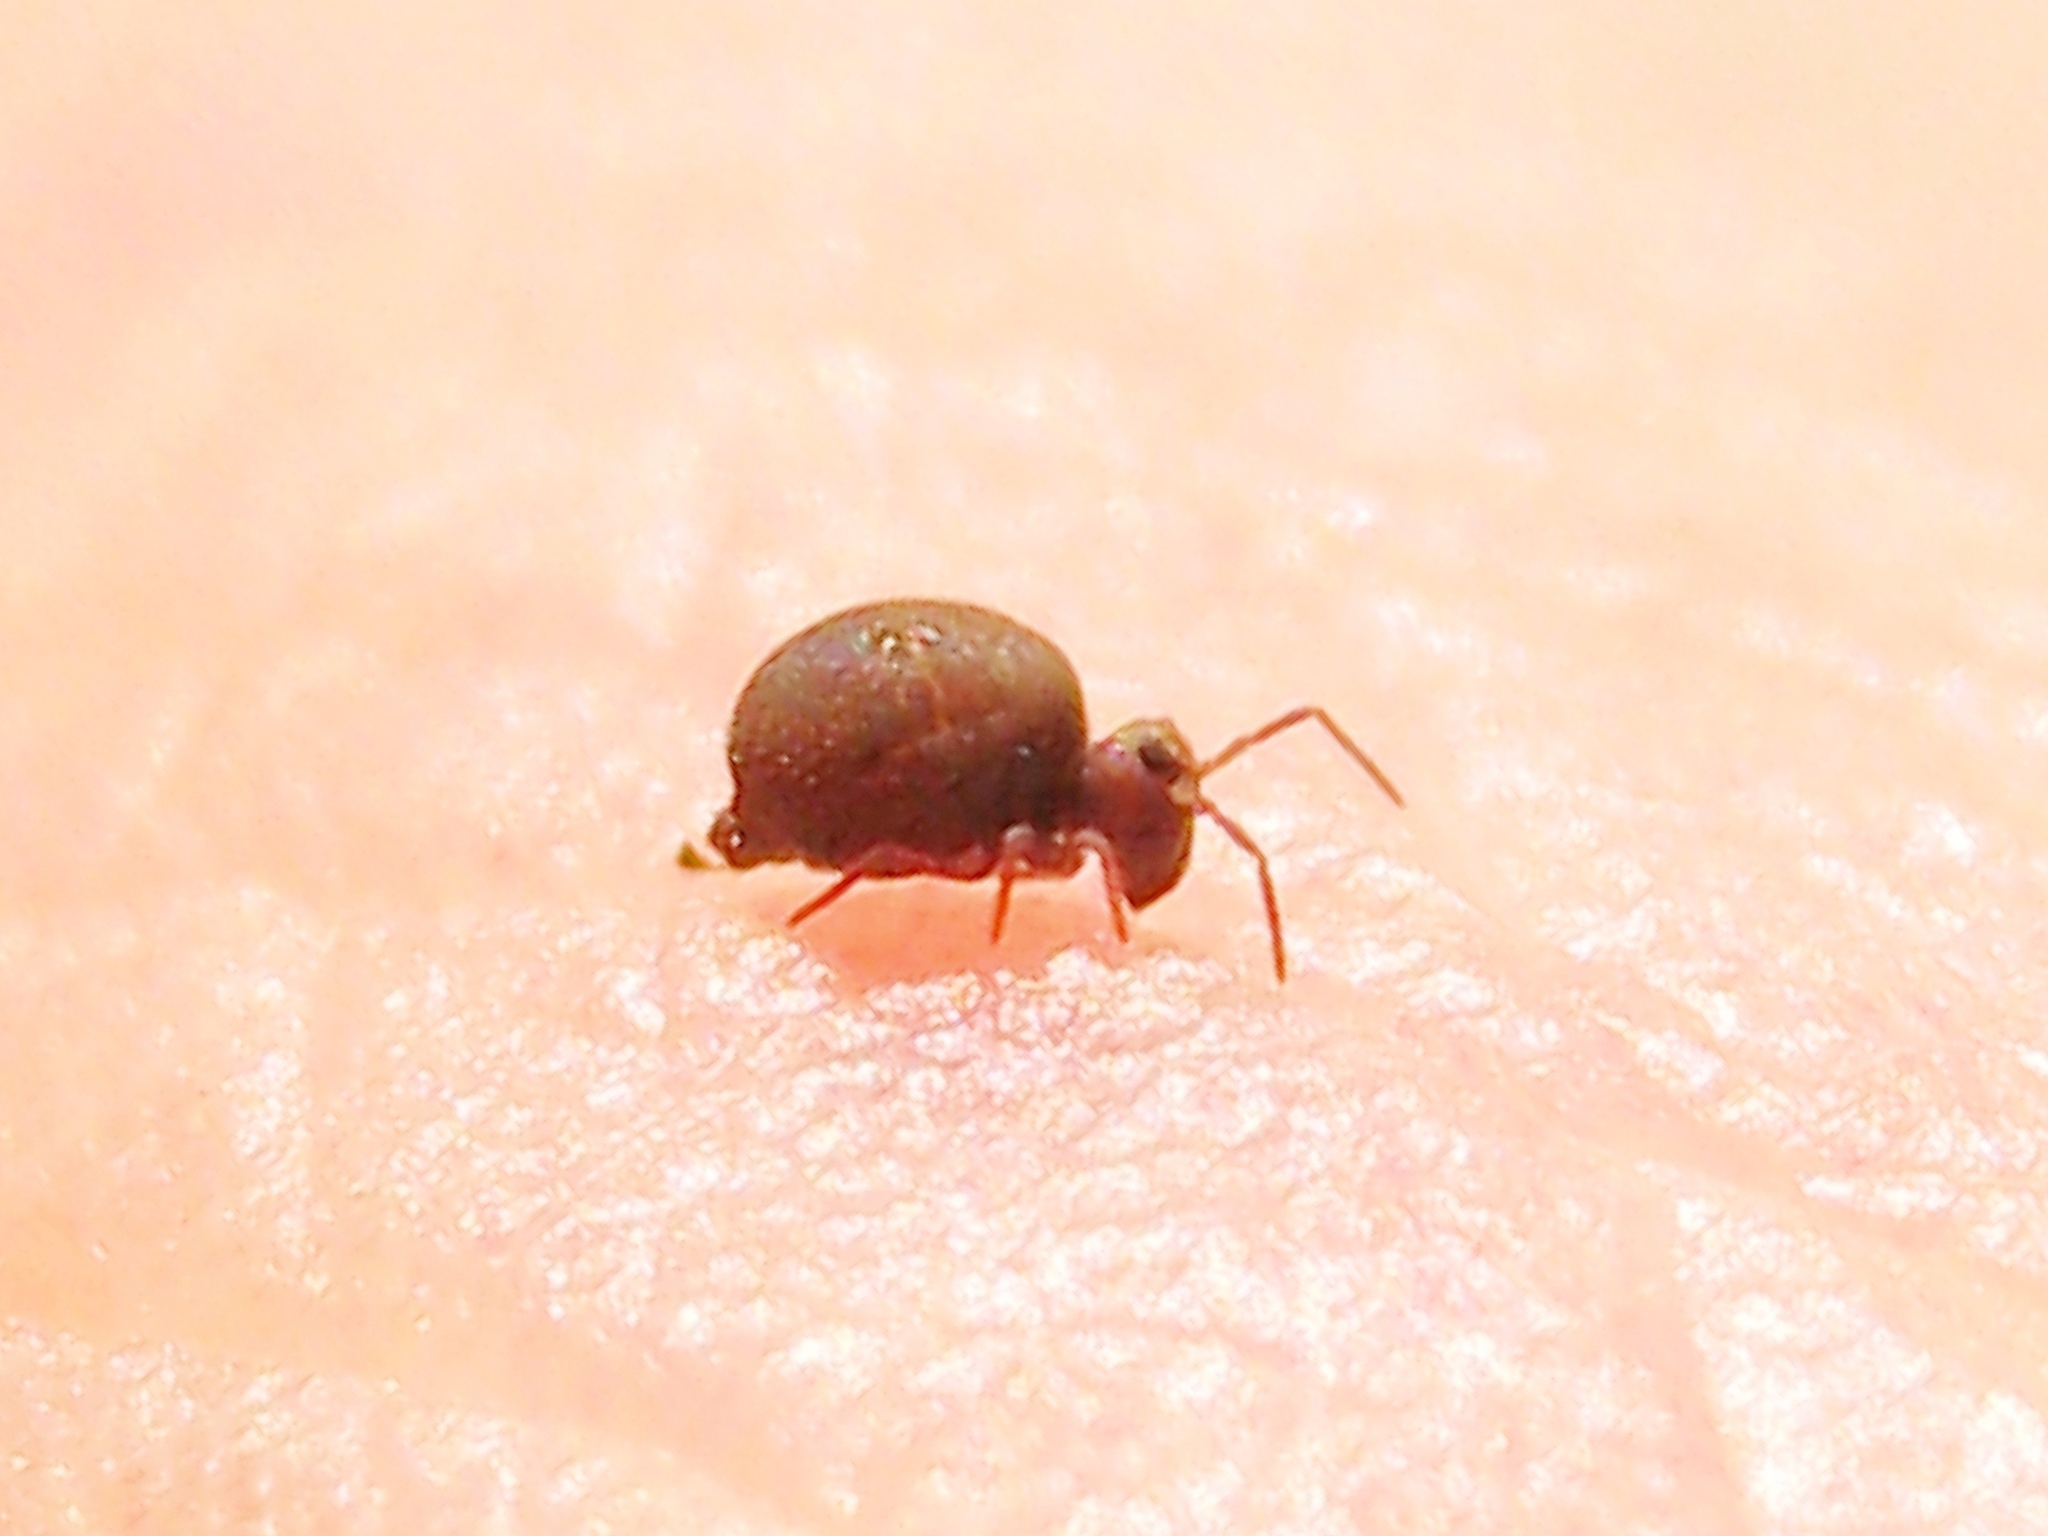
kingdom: Animalia
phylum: Arthropoda
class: Collembola
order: Symphypleona
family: Bourletiellidae
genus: Bourletiella
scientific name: Bourletiella hortensis
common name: Garden springtail
